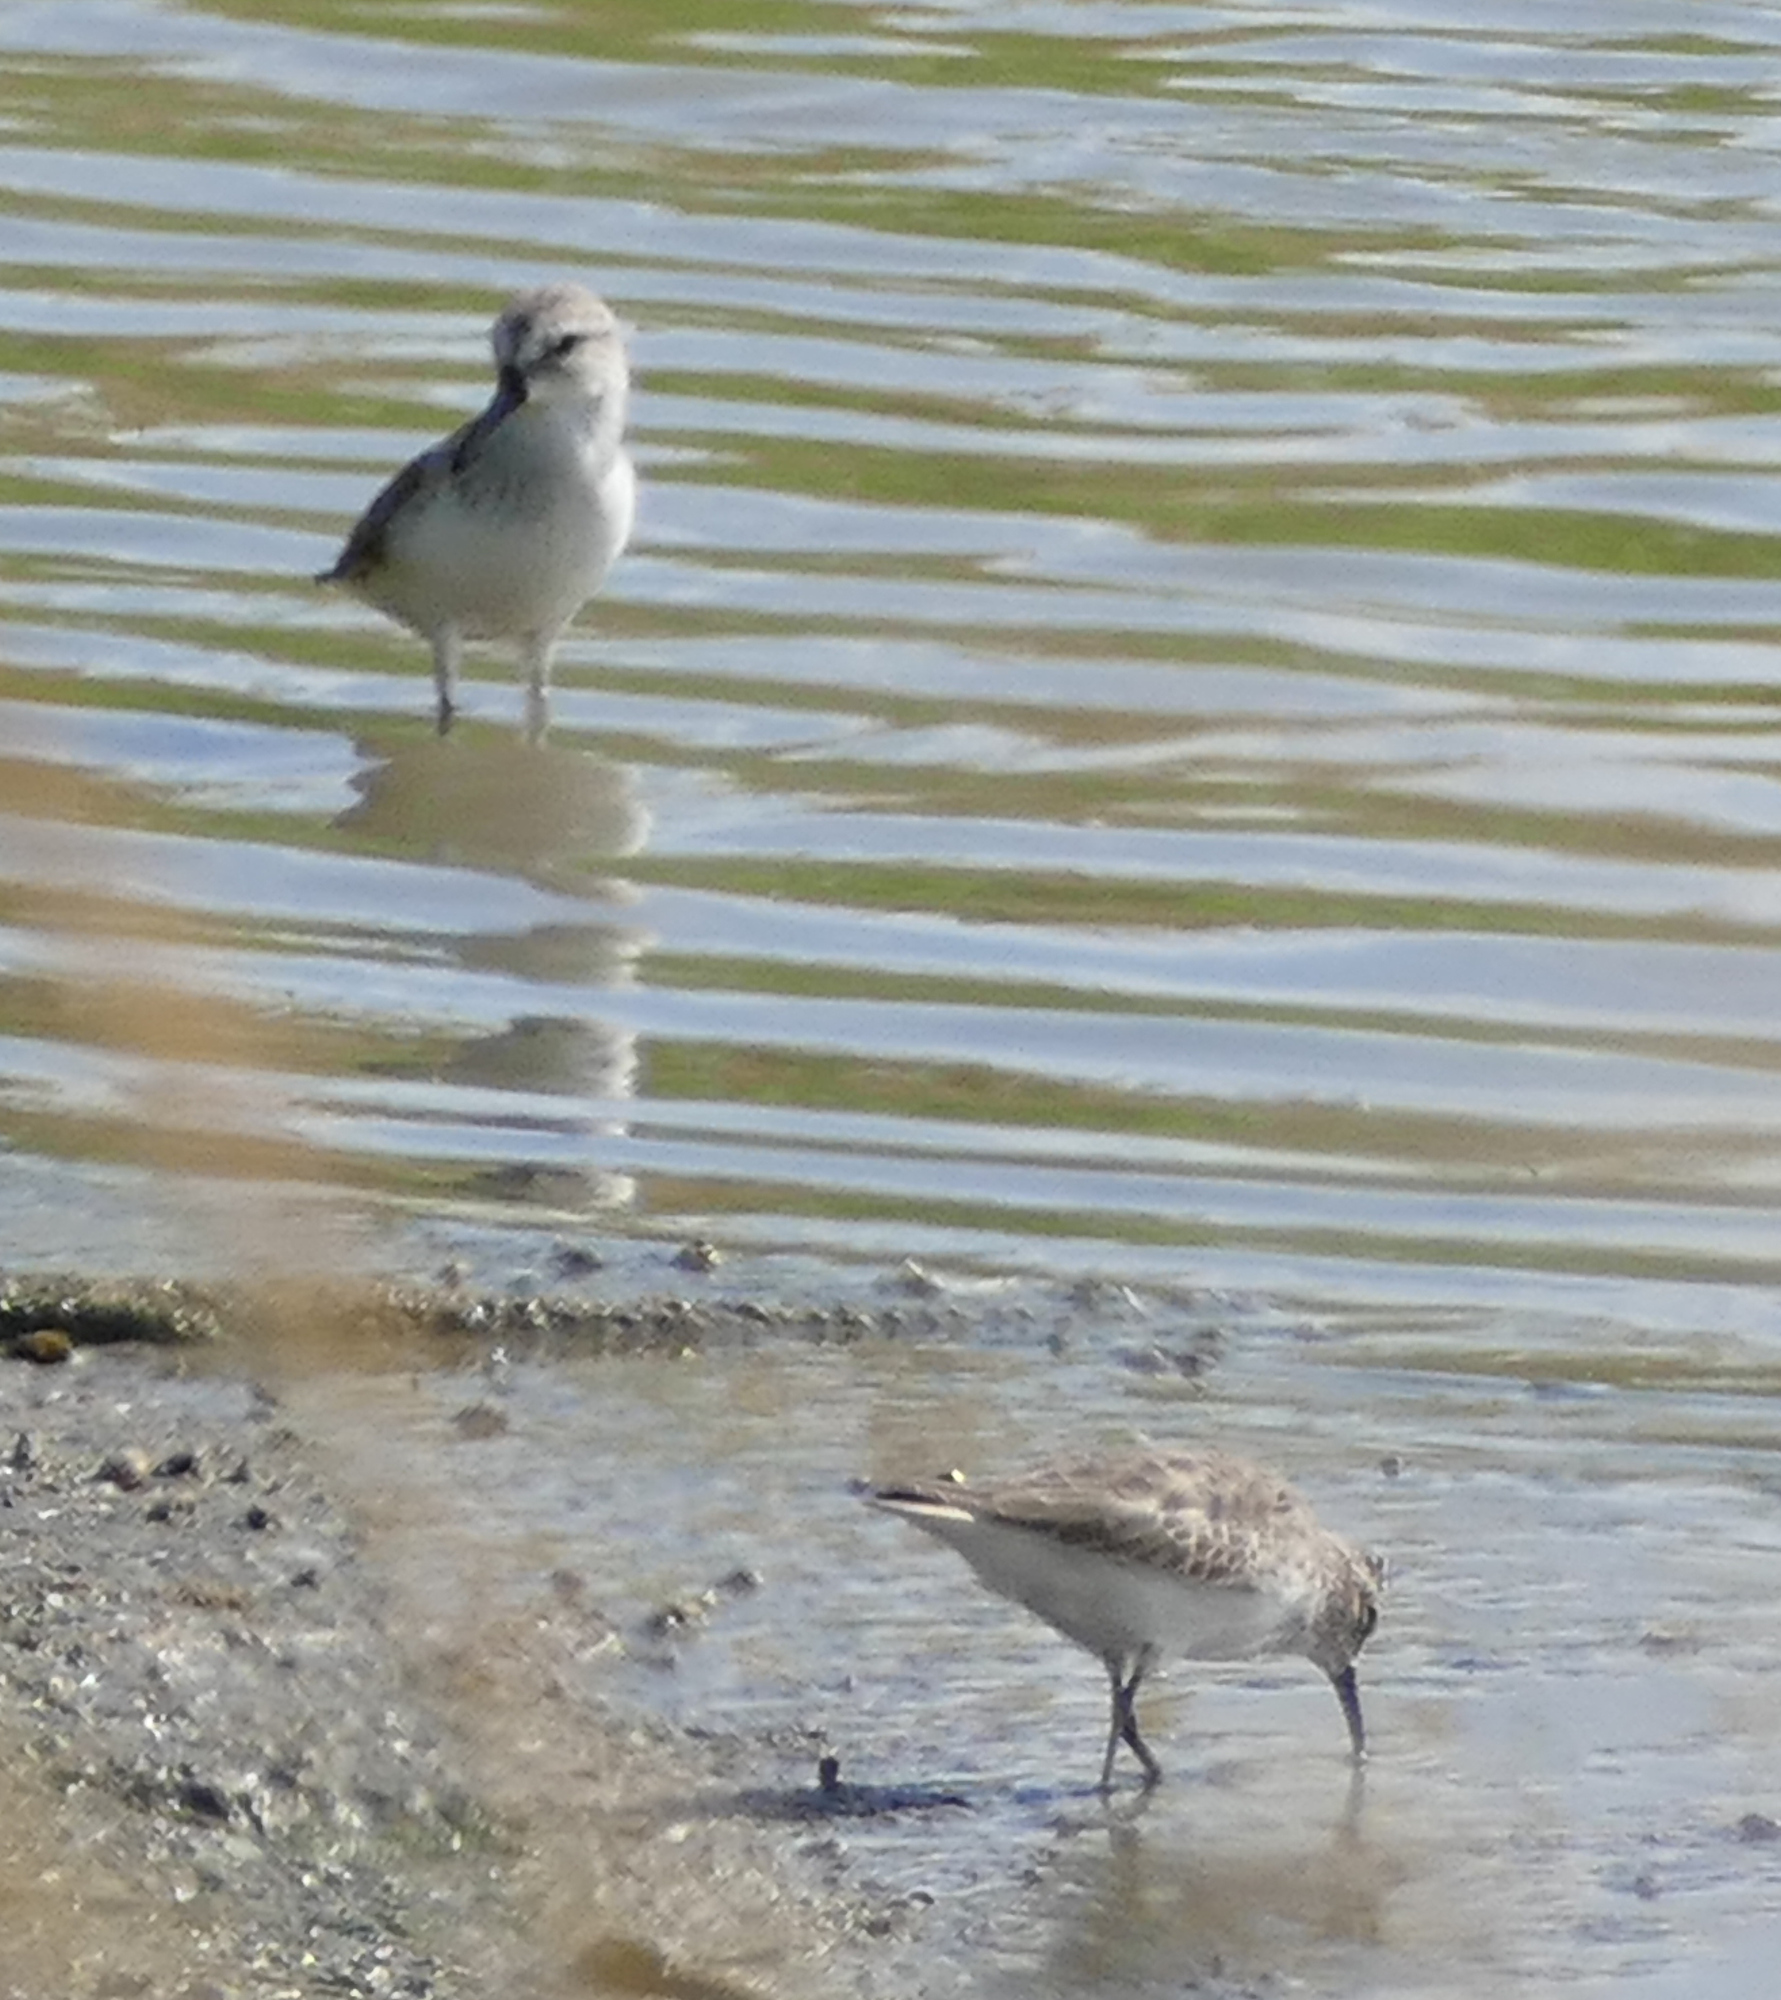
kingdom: Animalia
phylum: Chordata
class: Aves
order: Charadriiformes
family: Scolopacidae
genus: Calidris
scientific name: Calidris mauri
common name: Western sandpiper
